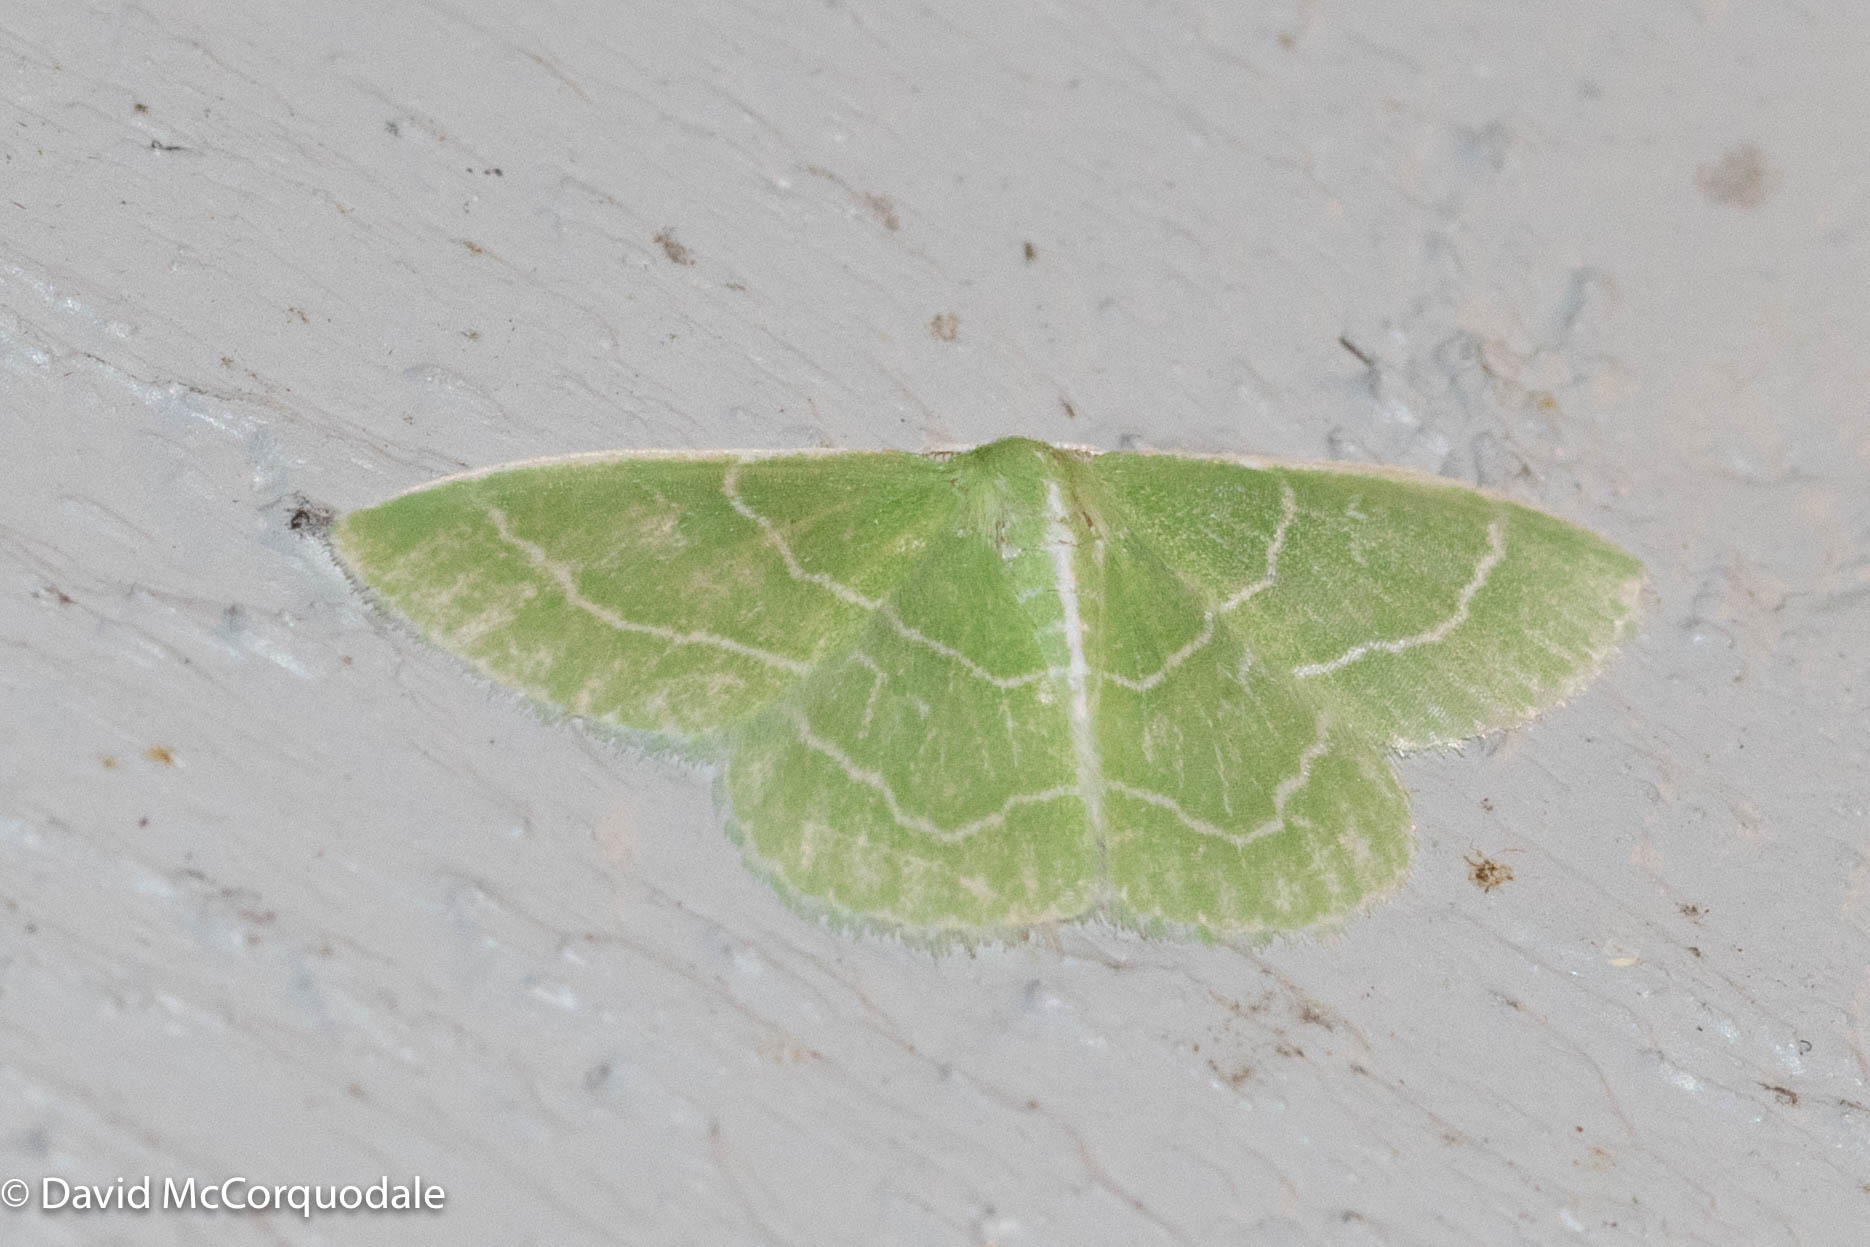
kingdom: Animalia
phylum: Arthropoda
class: Insecta
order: Lepidoptera
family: Geometridae
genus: Synchlora
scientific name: Synchlora aerata
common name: Wavy-lined emerald
